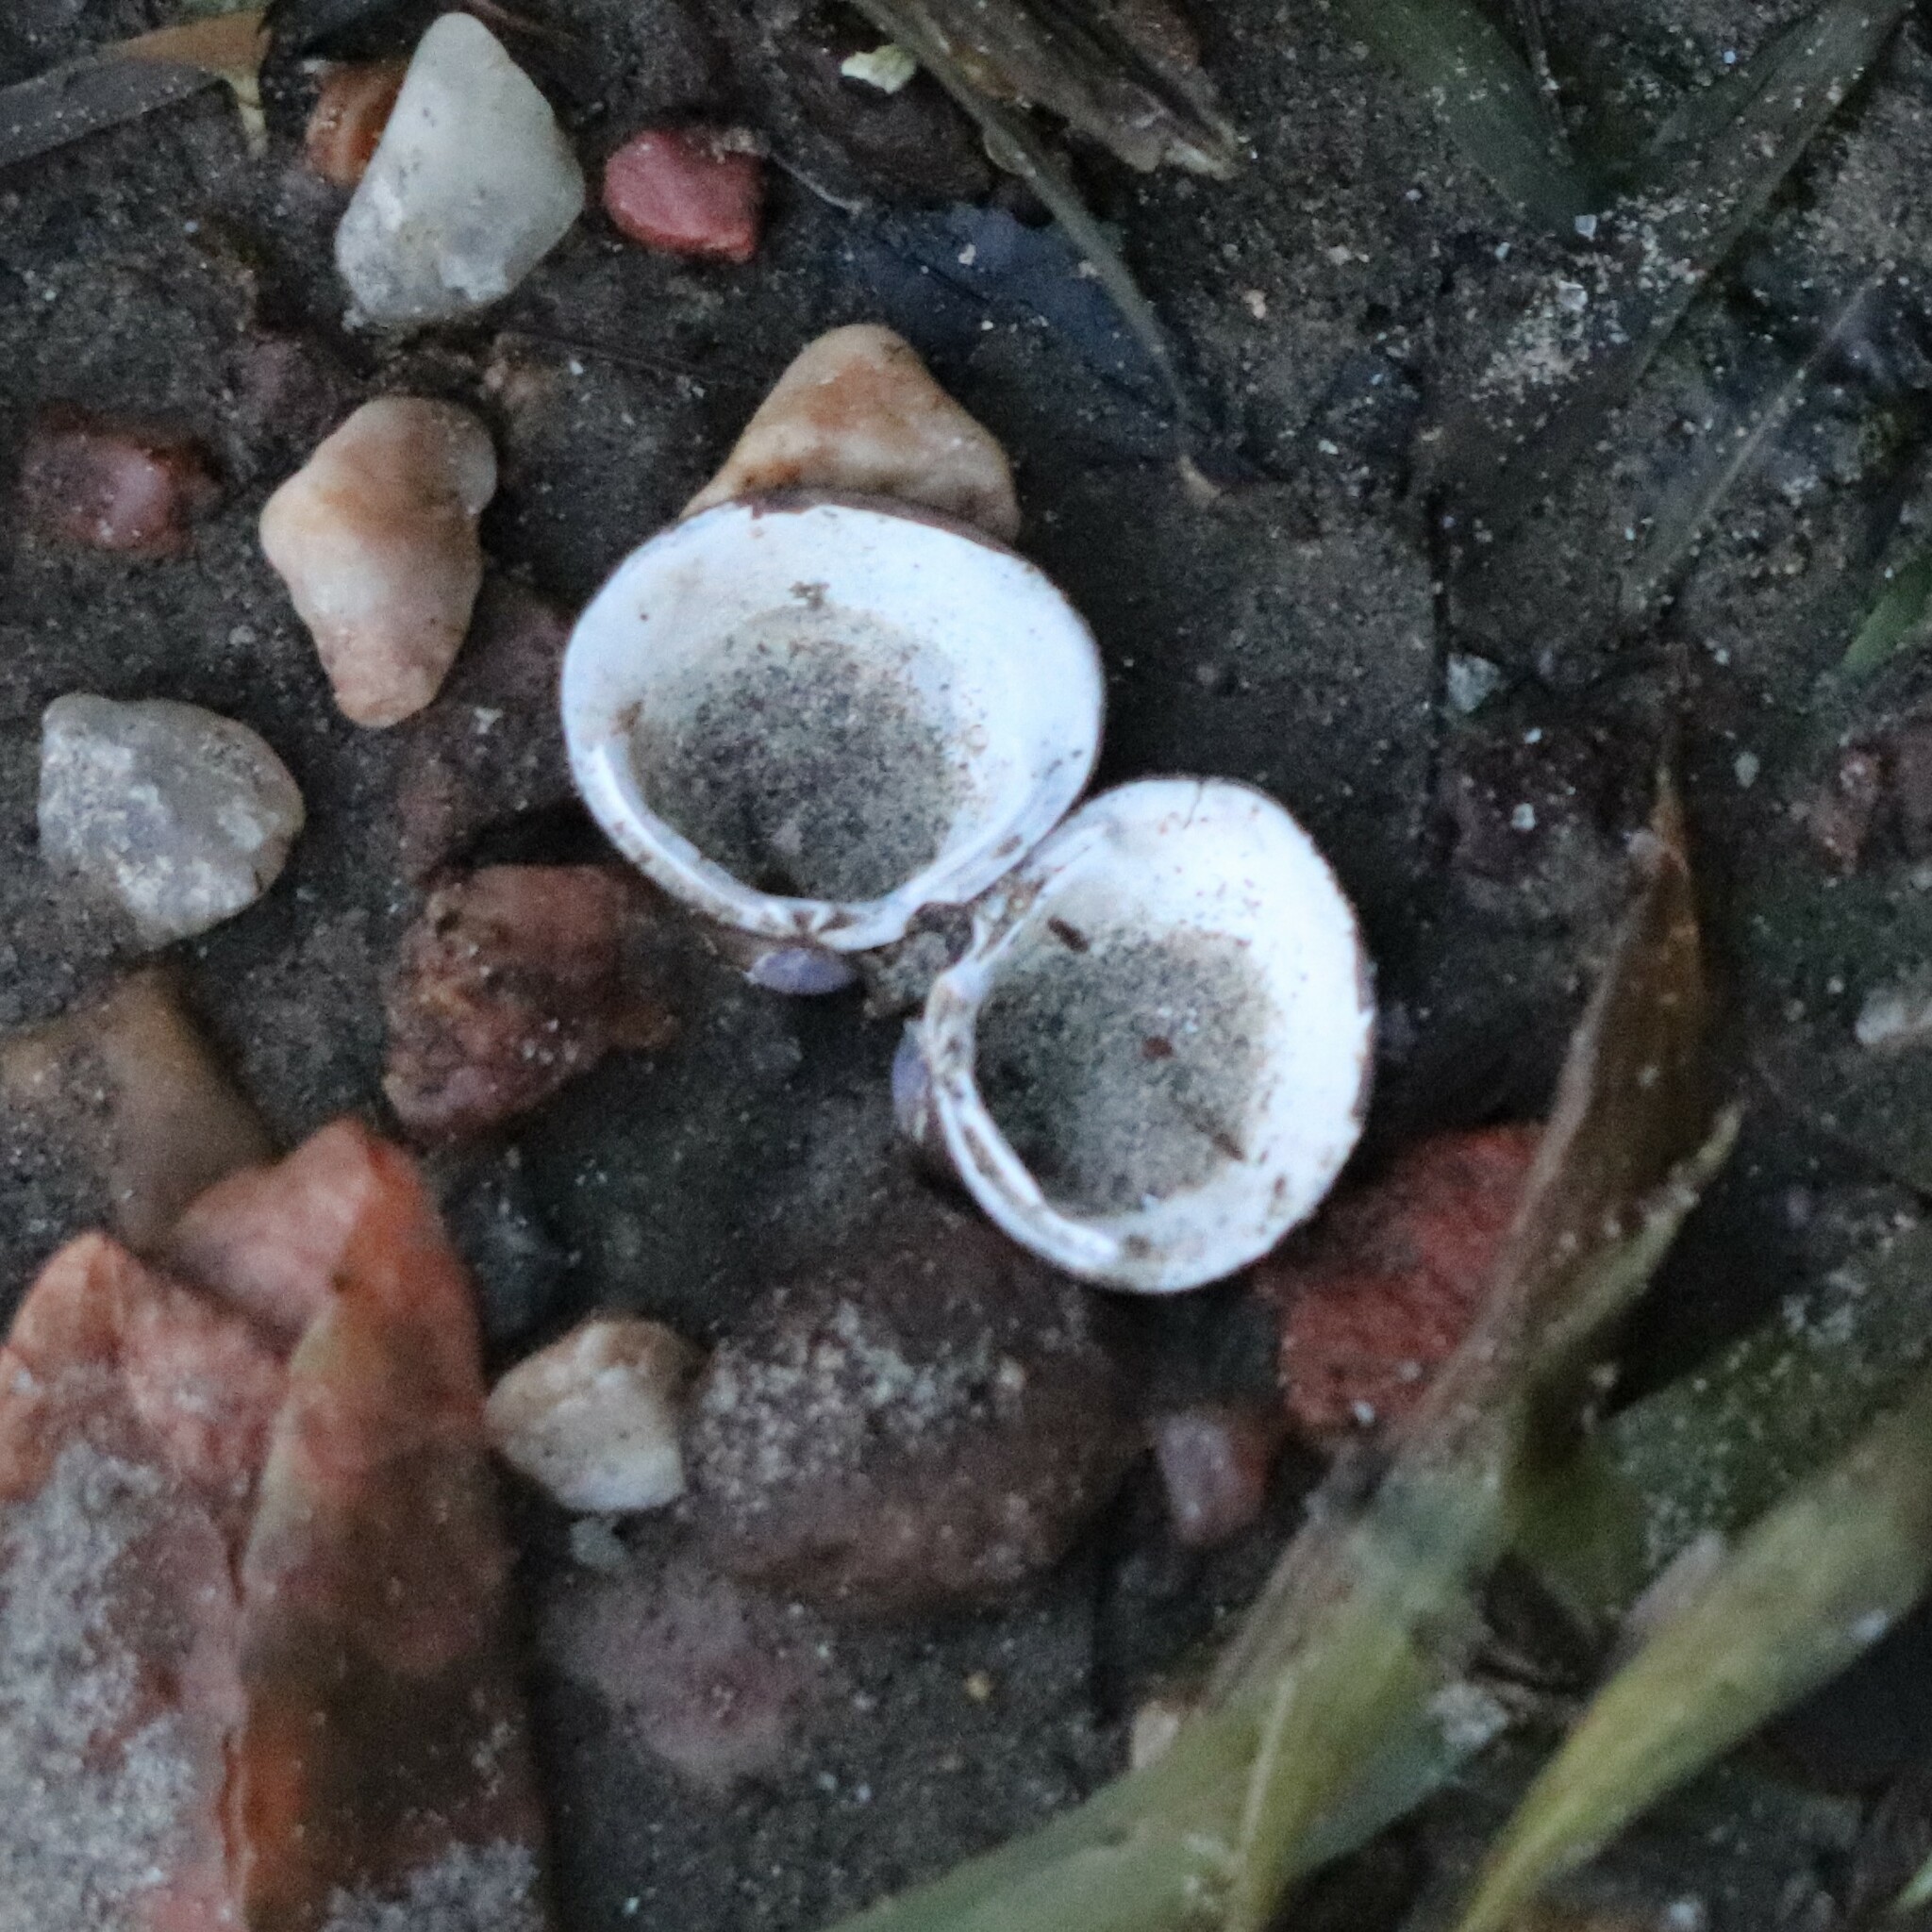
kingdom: Animalia
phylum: Mollusca
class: Bivalvia
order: Venerida
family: Cyrenidae
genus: Corbicula
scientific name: Corbicula fluminea
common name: Asian clam
